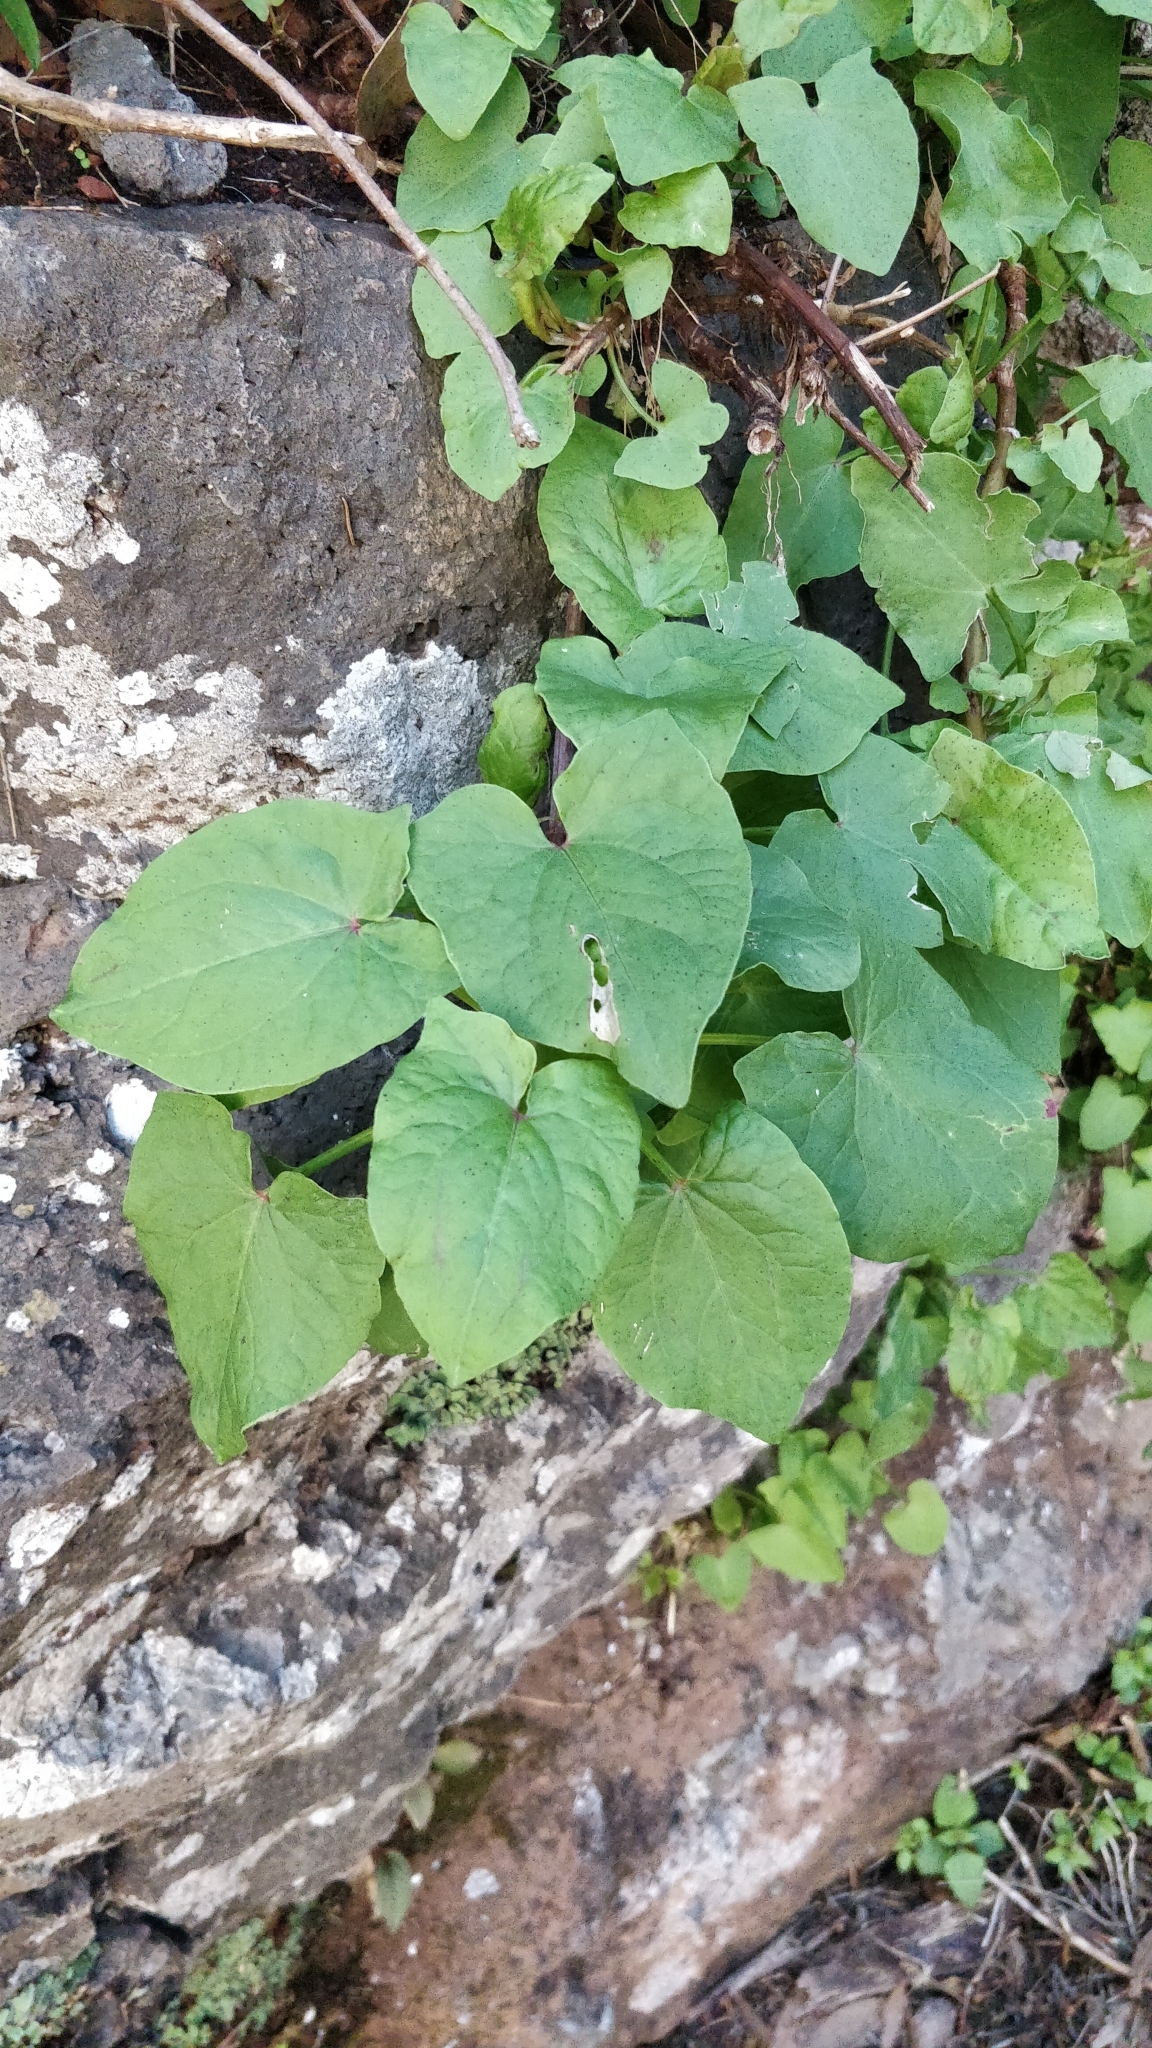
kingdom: Plantae
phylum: Tracheophyta
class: Magnoliopsida
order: Caryophyllales
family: Polygonaceae
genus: Rumex
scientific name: Rumex maderensis
